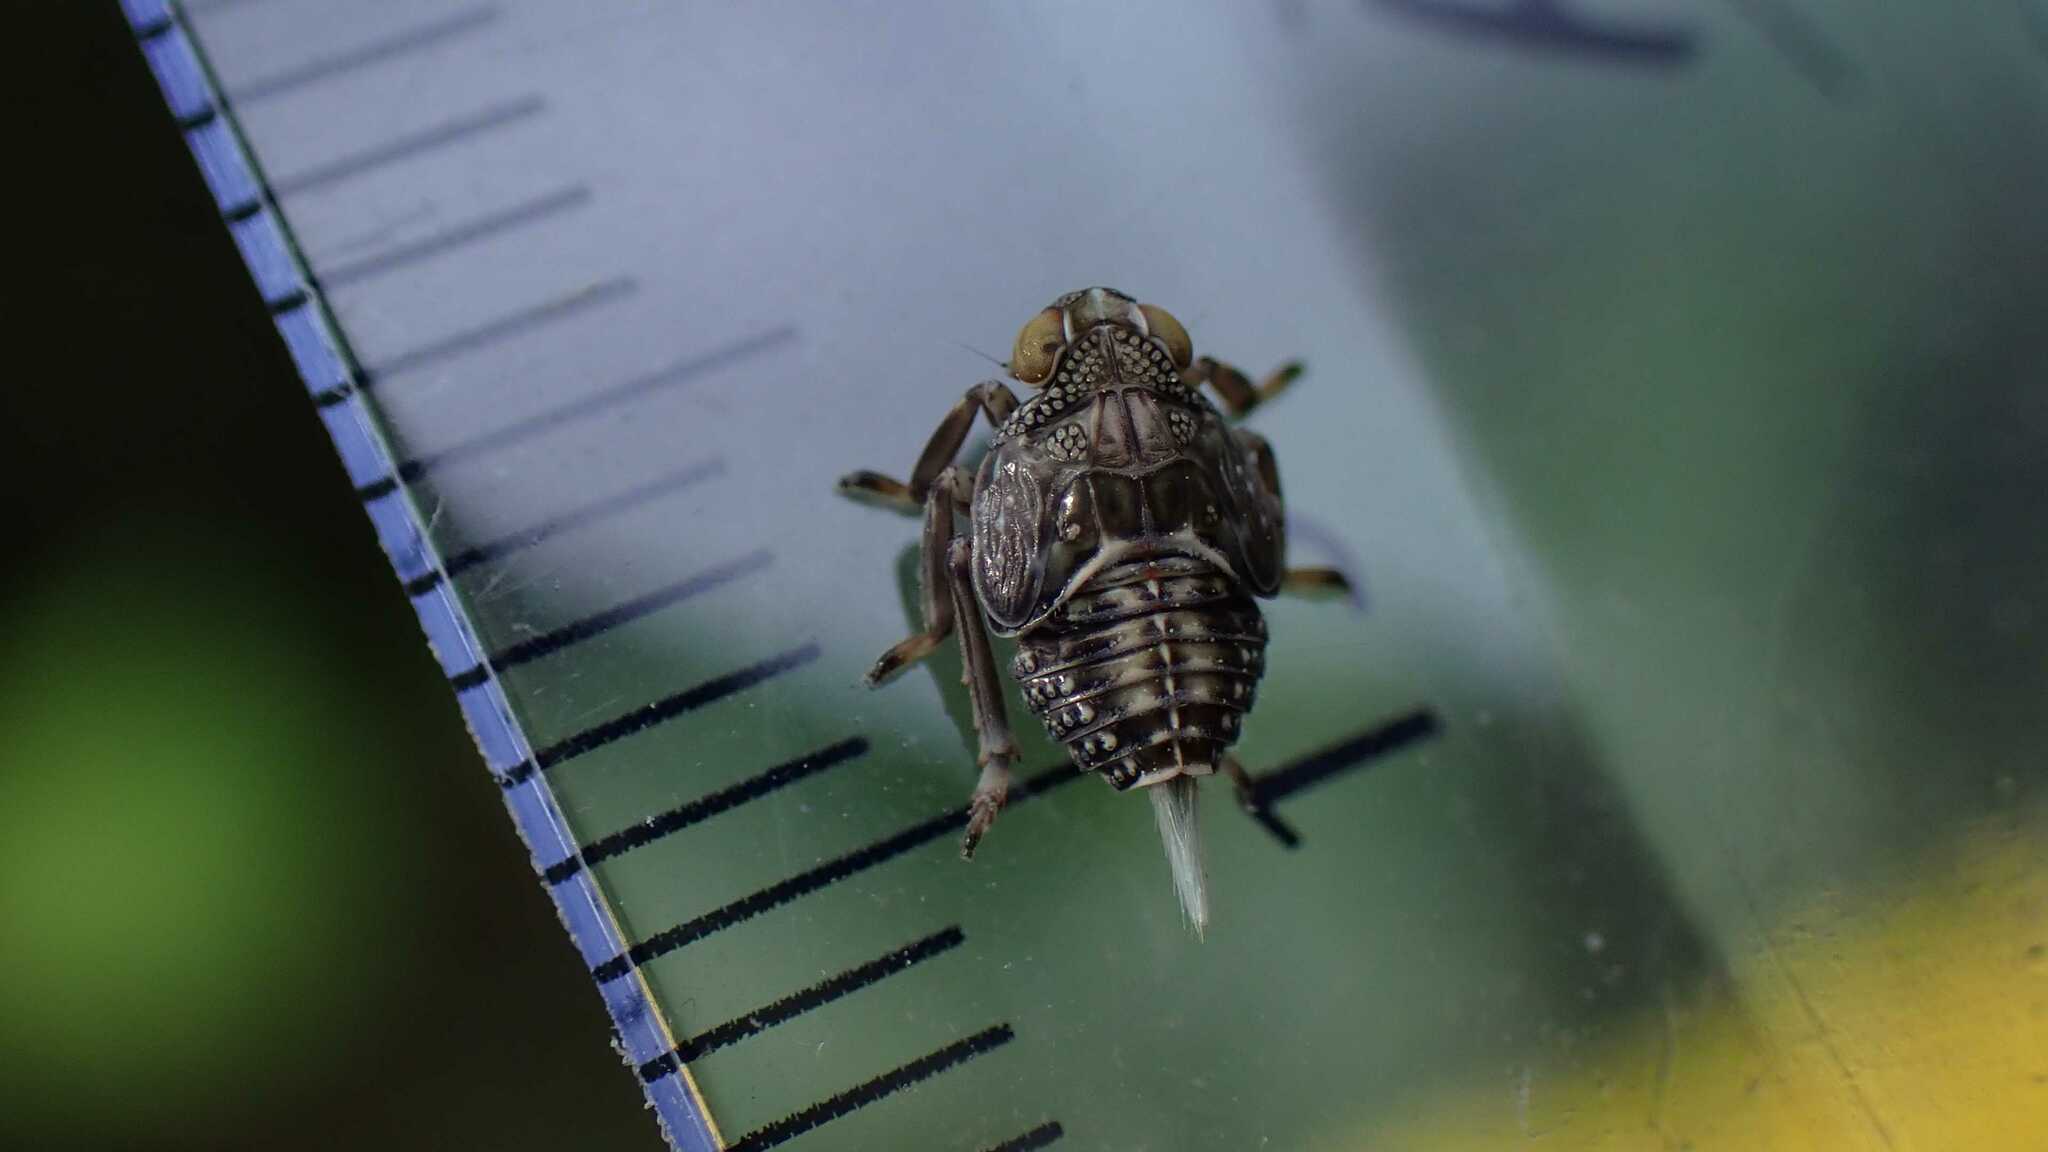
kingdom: Animalia
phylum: Arthropoda
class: Insecta
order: Hemiptera
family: Issidae
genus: Issus
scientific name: Issus coleoptratus
